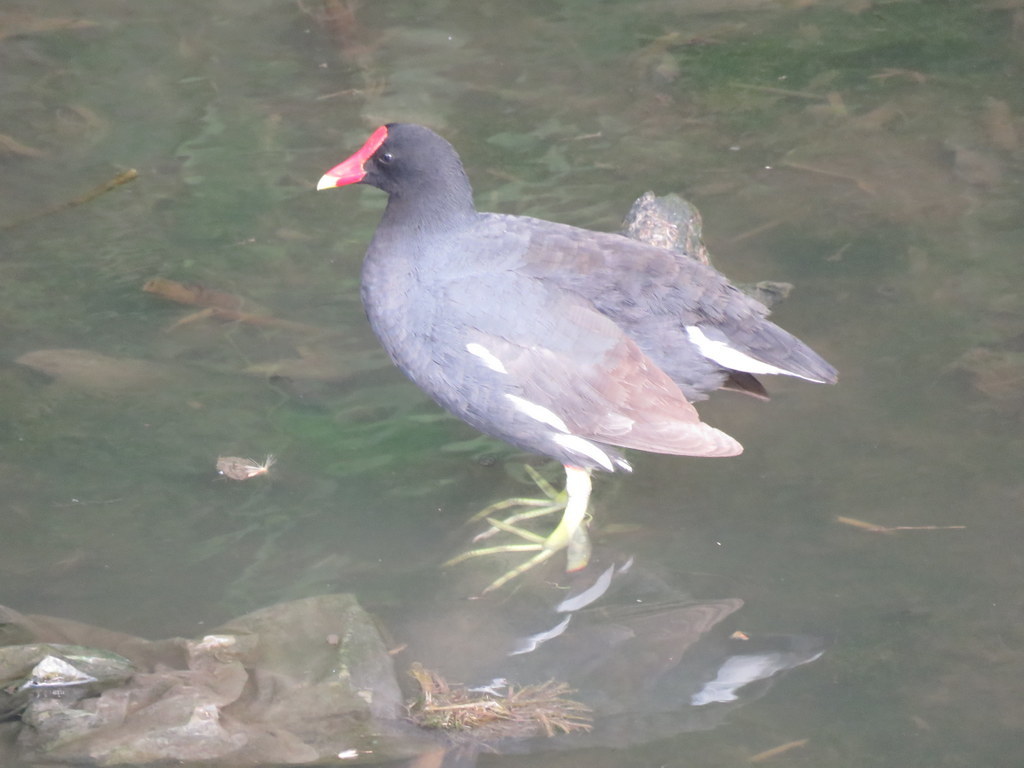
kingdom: Animalia
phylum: Chordata
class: Aves
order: Gruiformes
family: Rallidae
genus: Gallinula
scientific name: Gallinula chloropus
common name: Common moorhen
